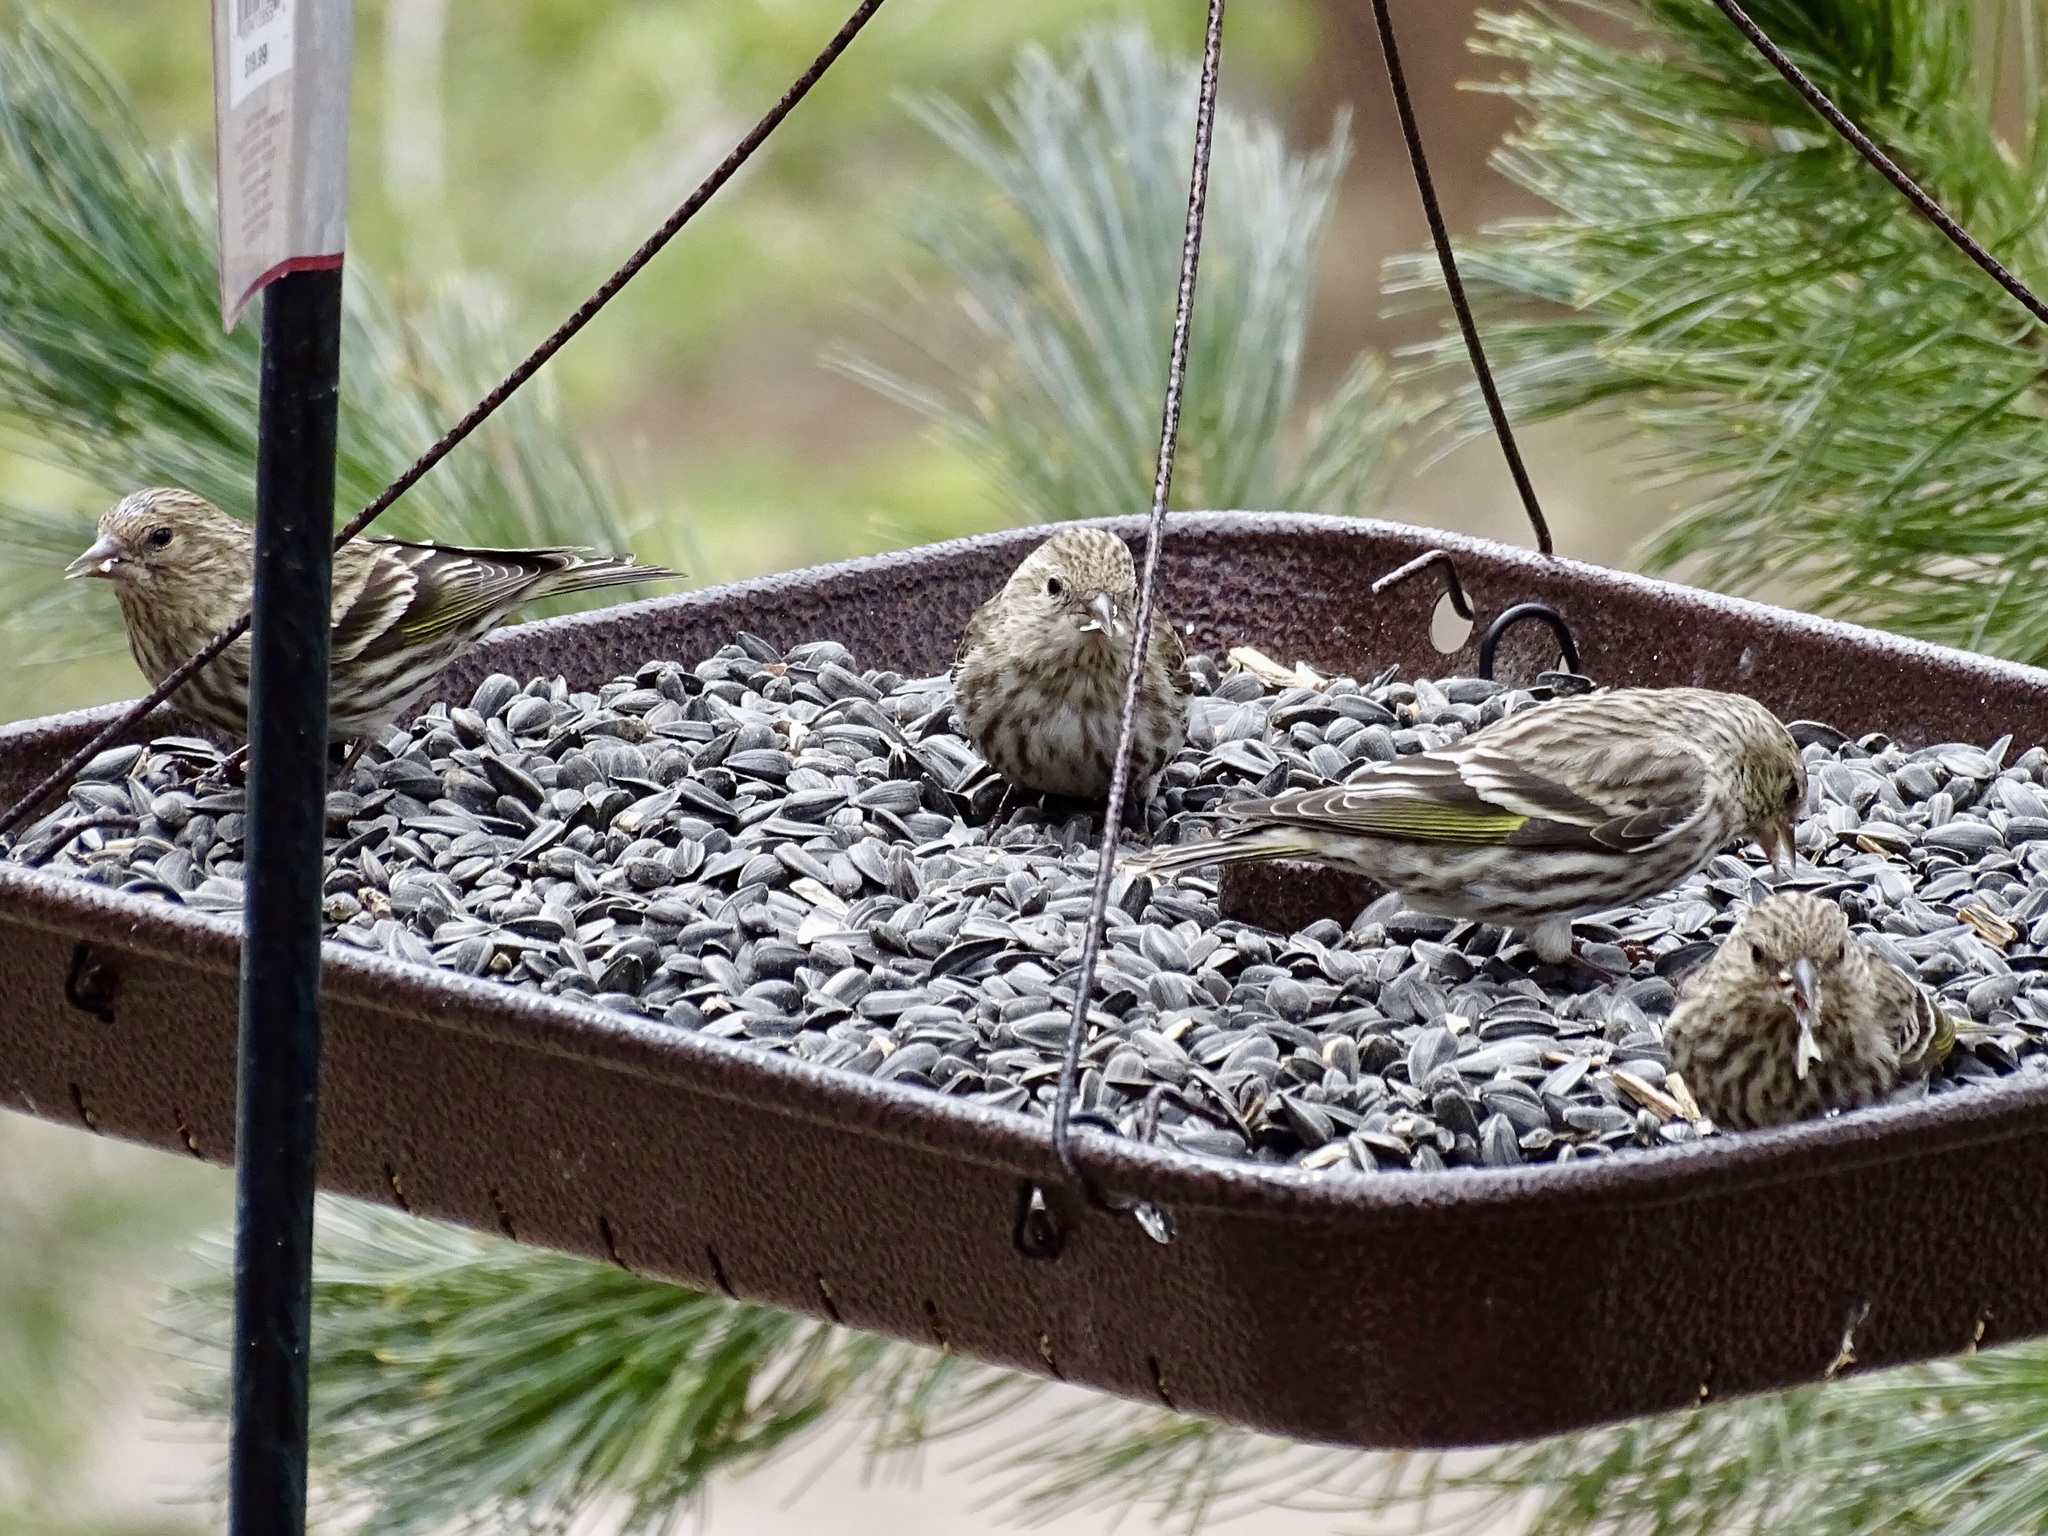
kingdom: Animalia
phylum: Chordata
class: Aves
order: Passeriformes
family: Fringillidae
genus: Spinus
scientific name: Spinus pinus
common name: Pine siskin
